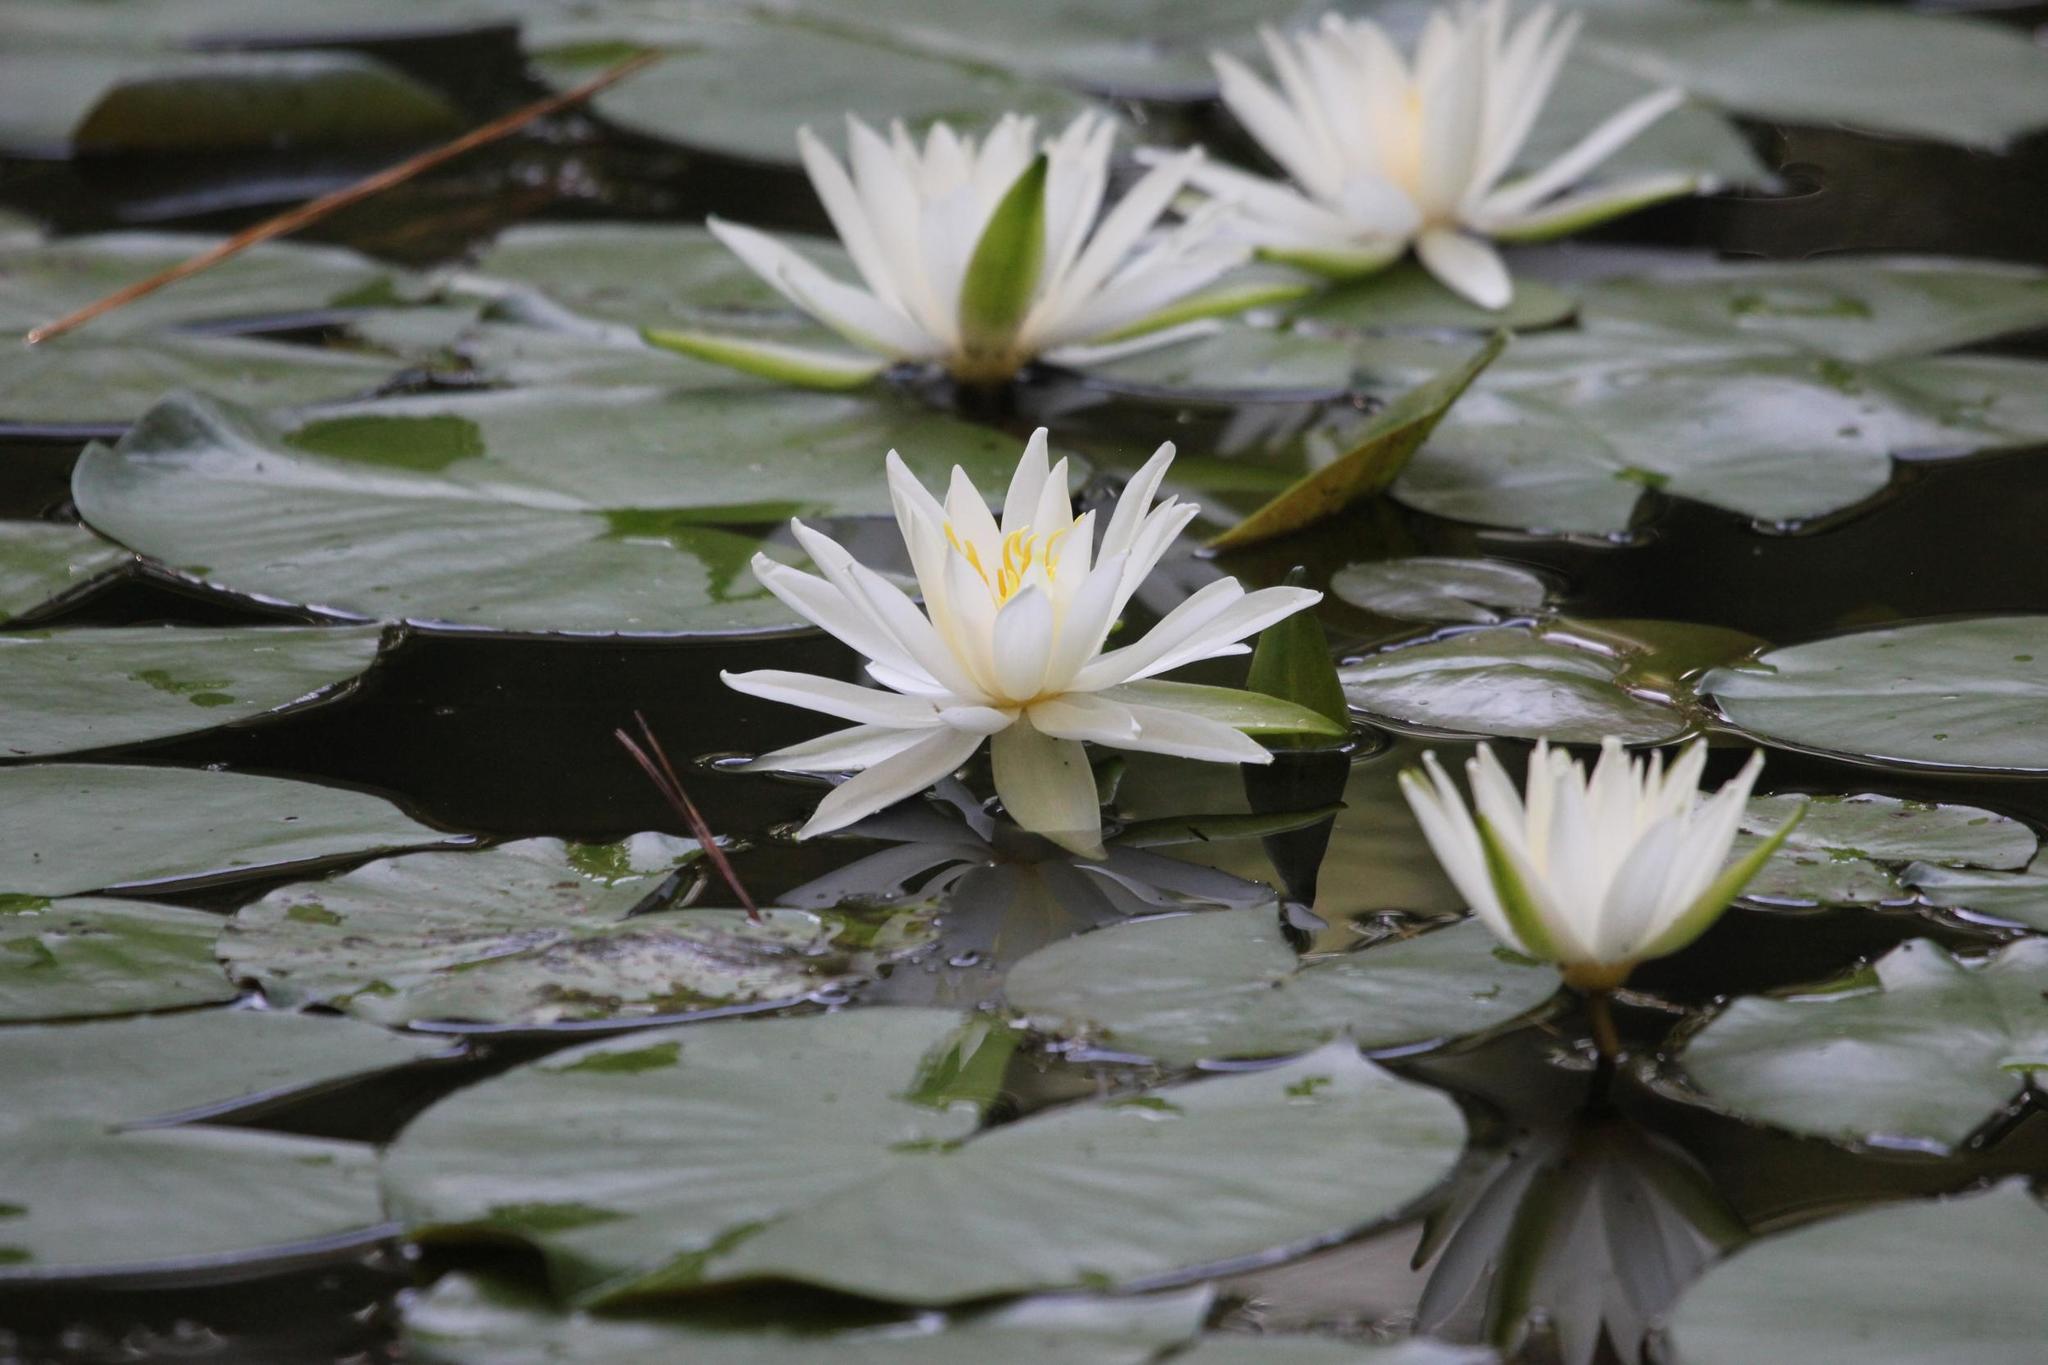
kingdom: Plantae
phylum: Tracheophyta
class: Magnoliopsida
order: Nymphaeales
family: Nymphaeaceae
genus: Nymphaea
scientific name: Nymphaea odorata
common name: Fragrant water-lily
